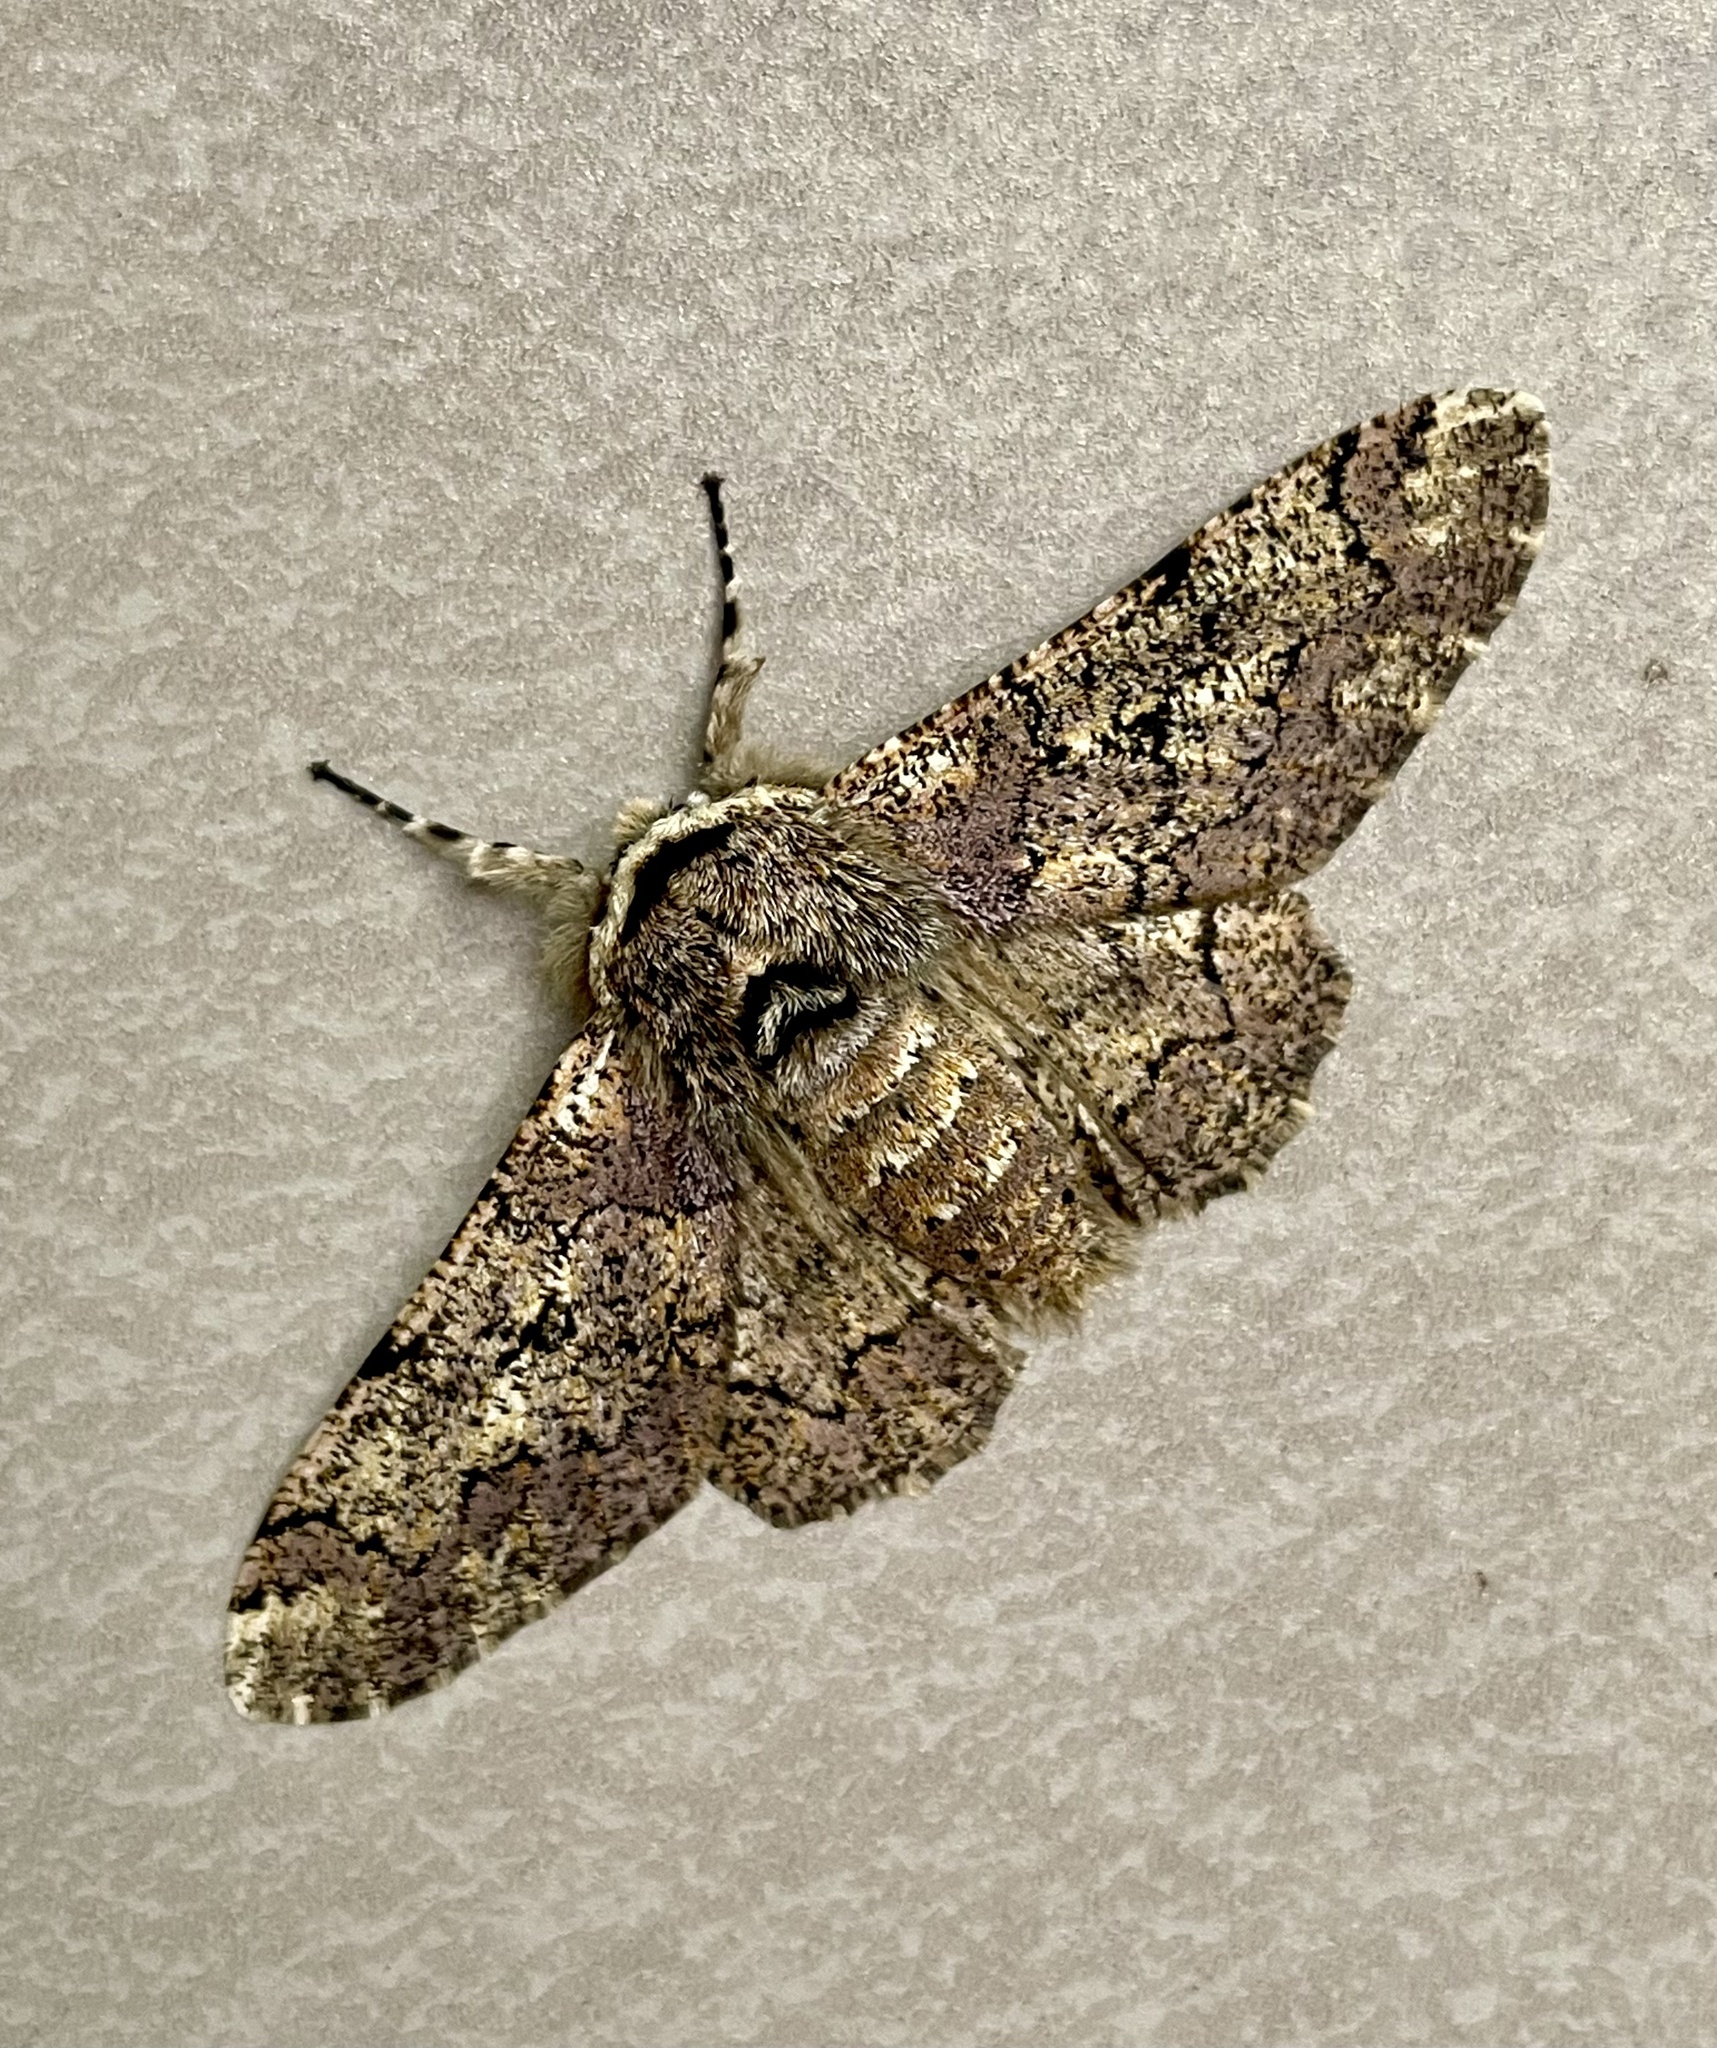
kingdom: Animalia
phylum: Arthropoda
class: Insecta
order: Lepidoptera
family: Geometridae
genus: Biston
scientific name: Biston robustum
